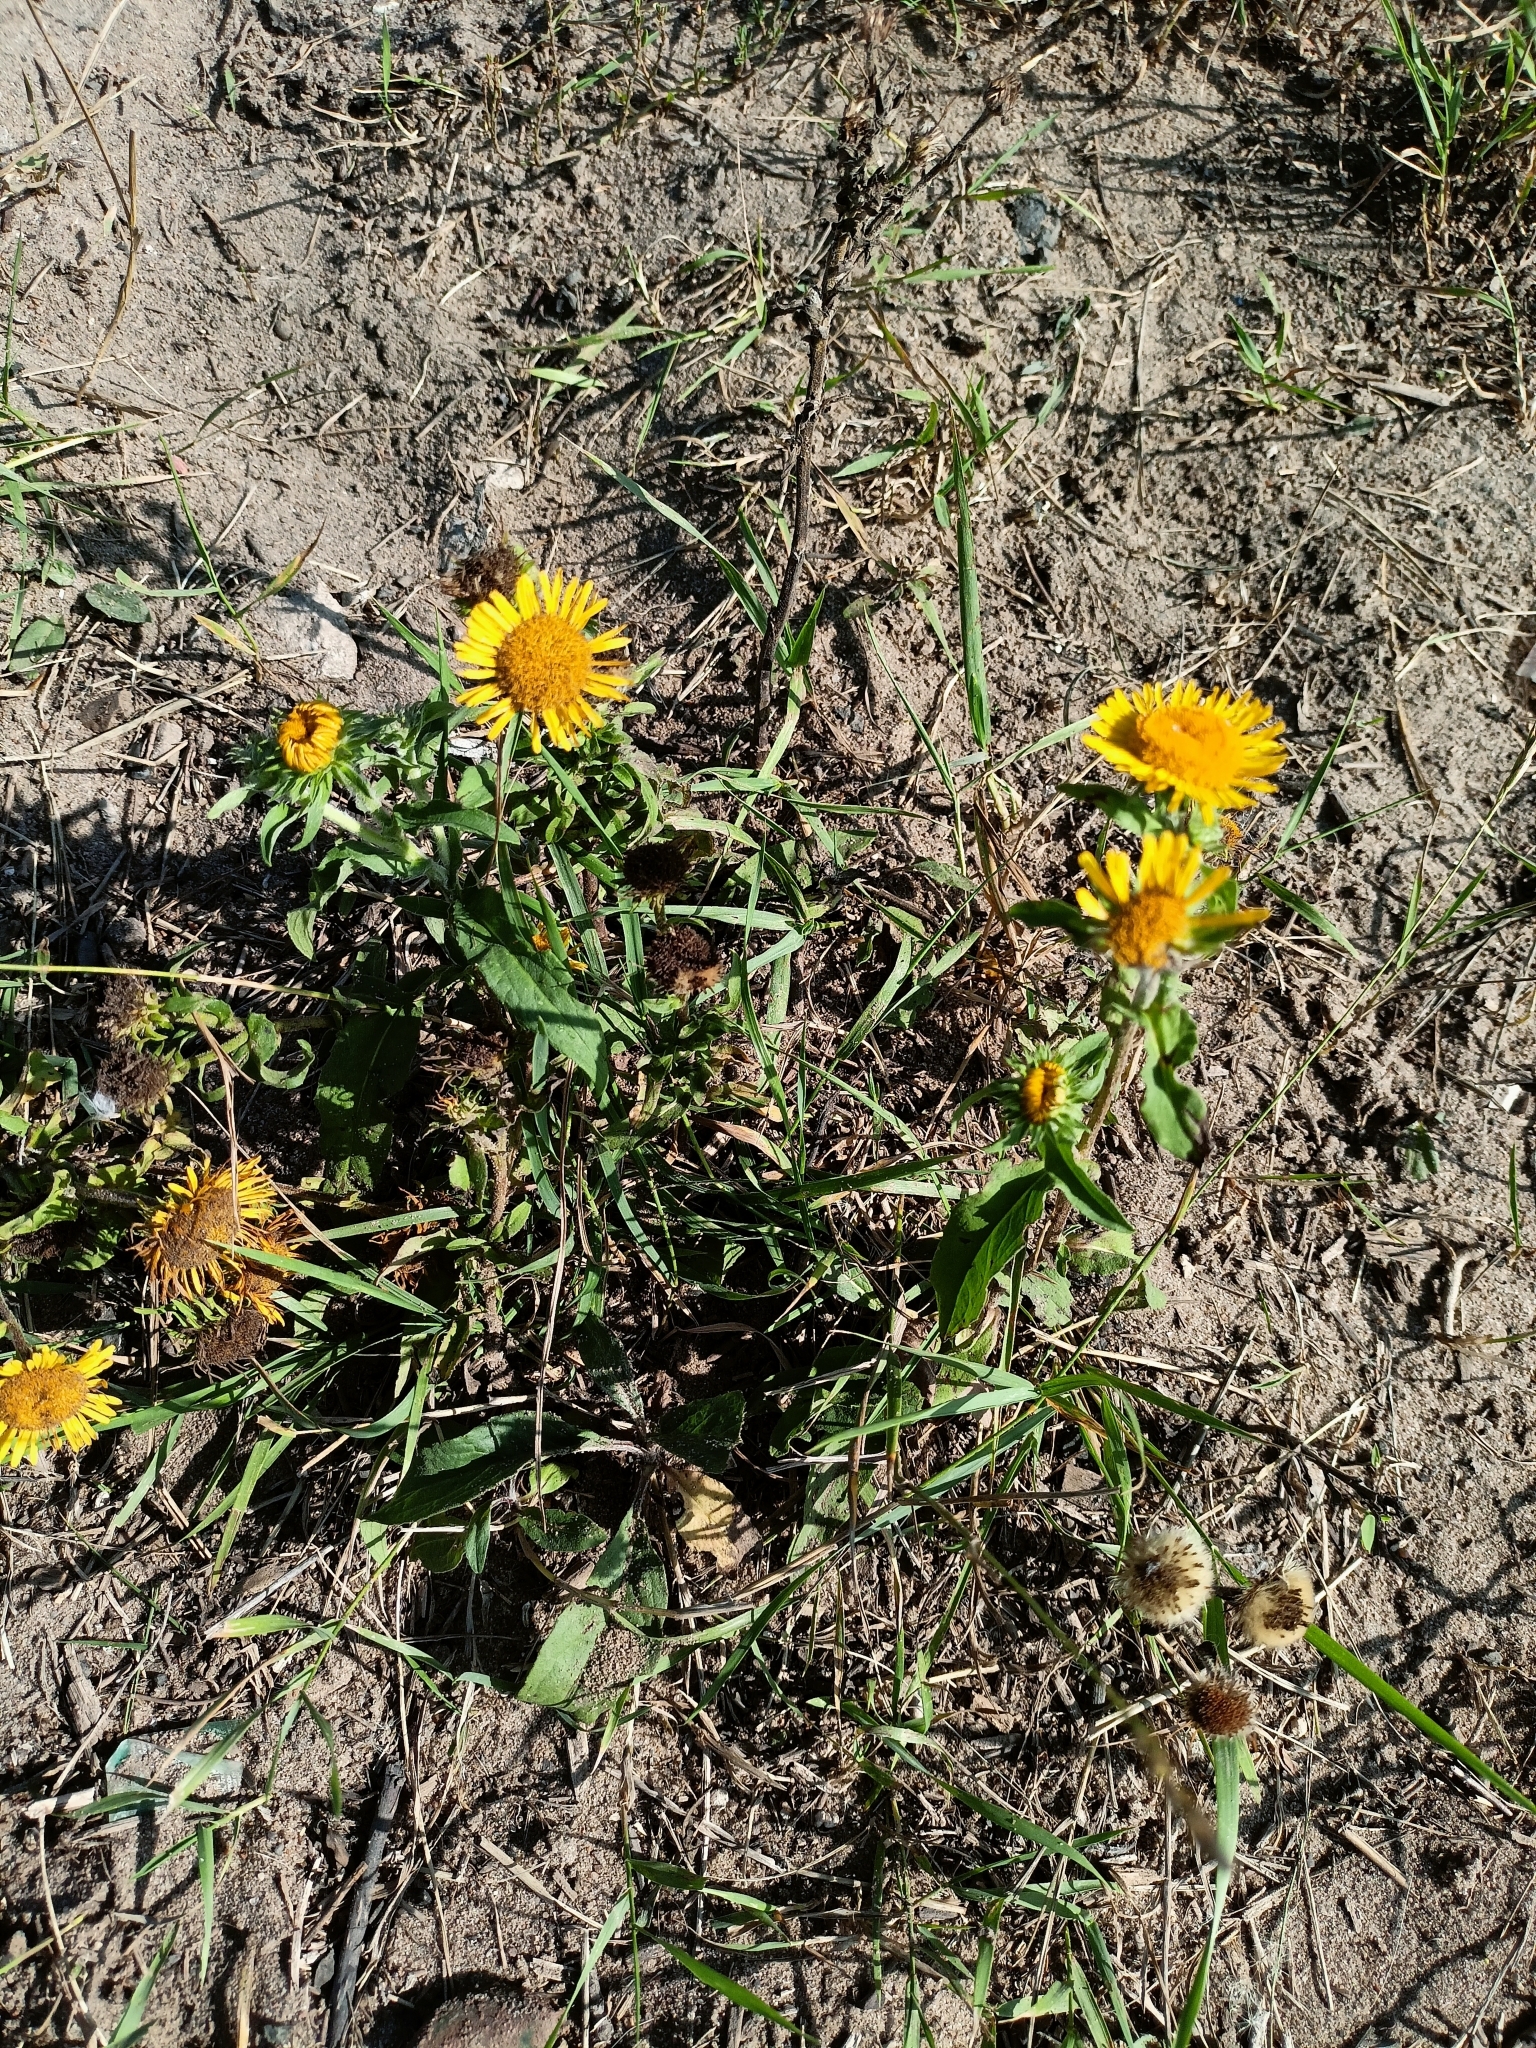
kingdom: Plantae
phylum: Tracheophyta
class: Magnoliopsida
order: Asterales
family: Asteraceae
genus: Pentanema
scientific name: Pentanema britannicum
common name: British elecampane
